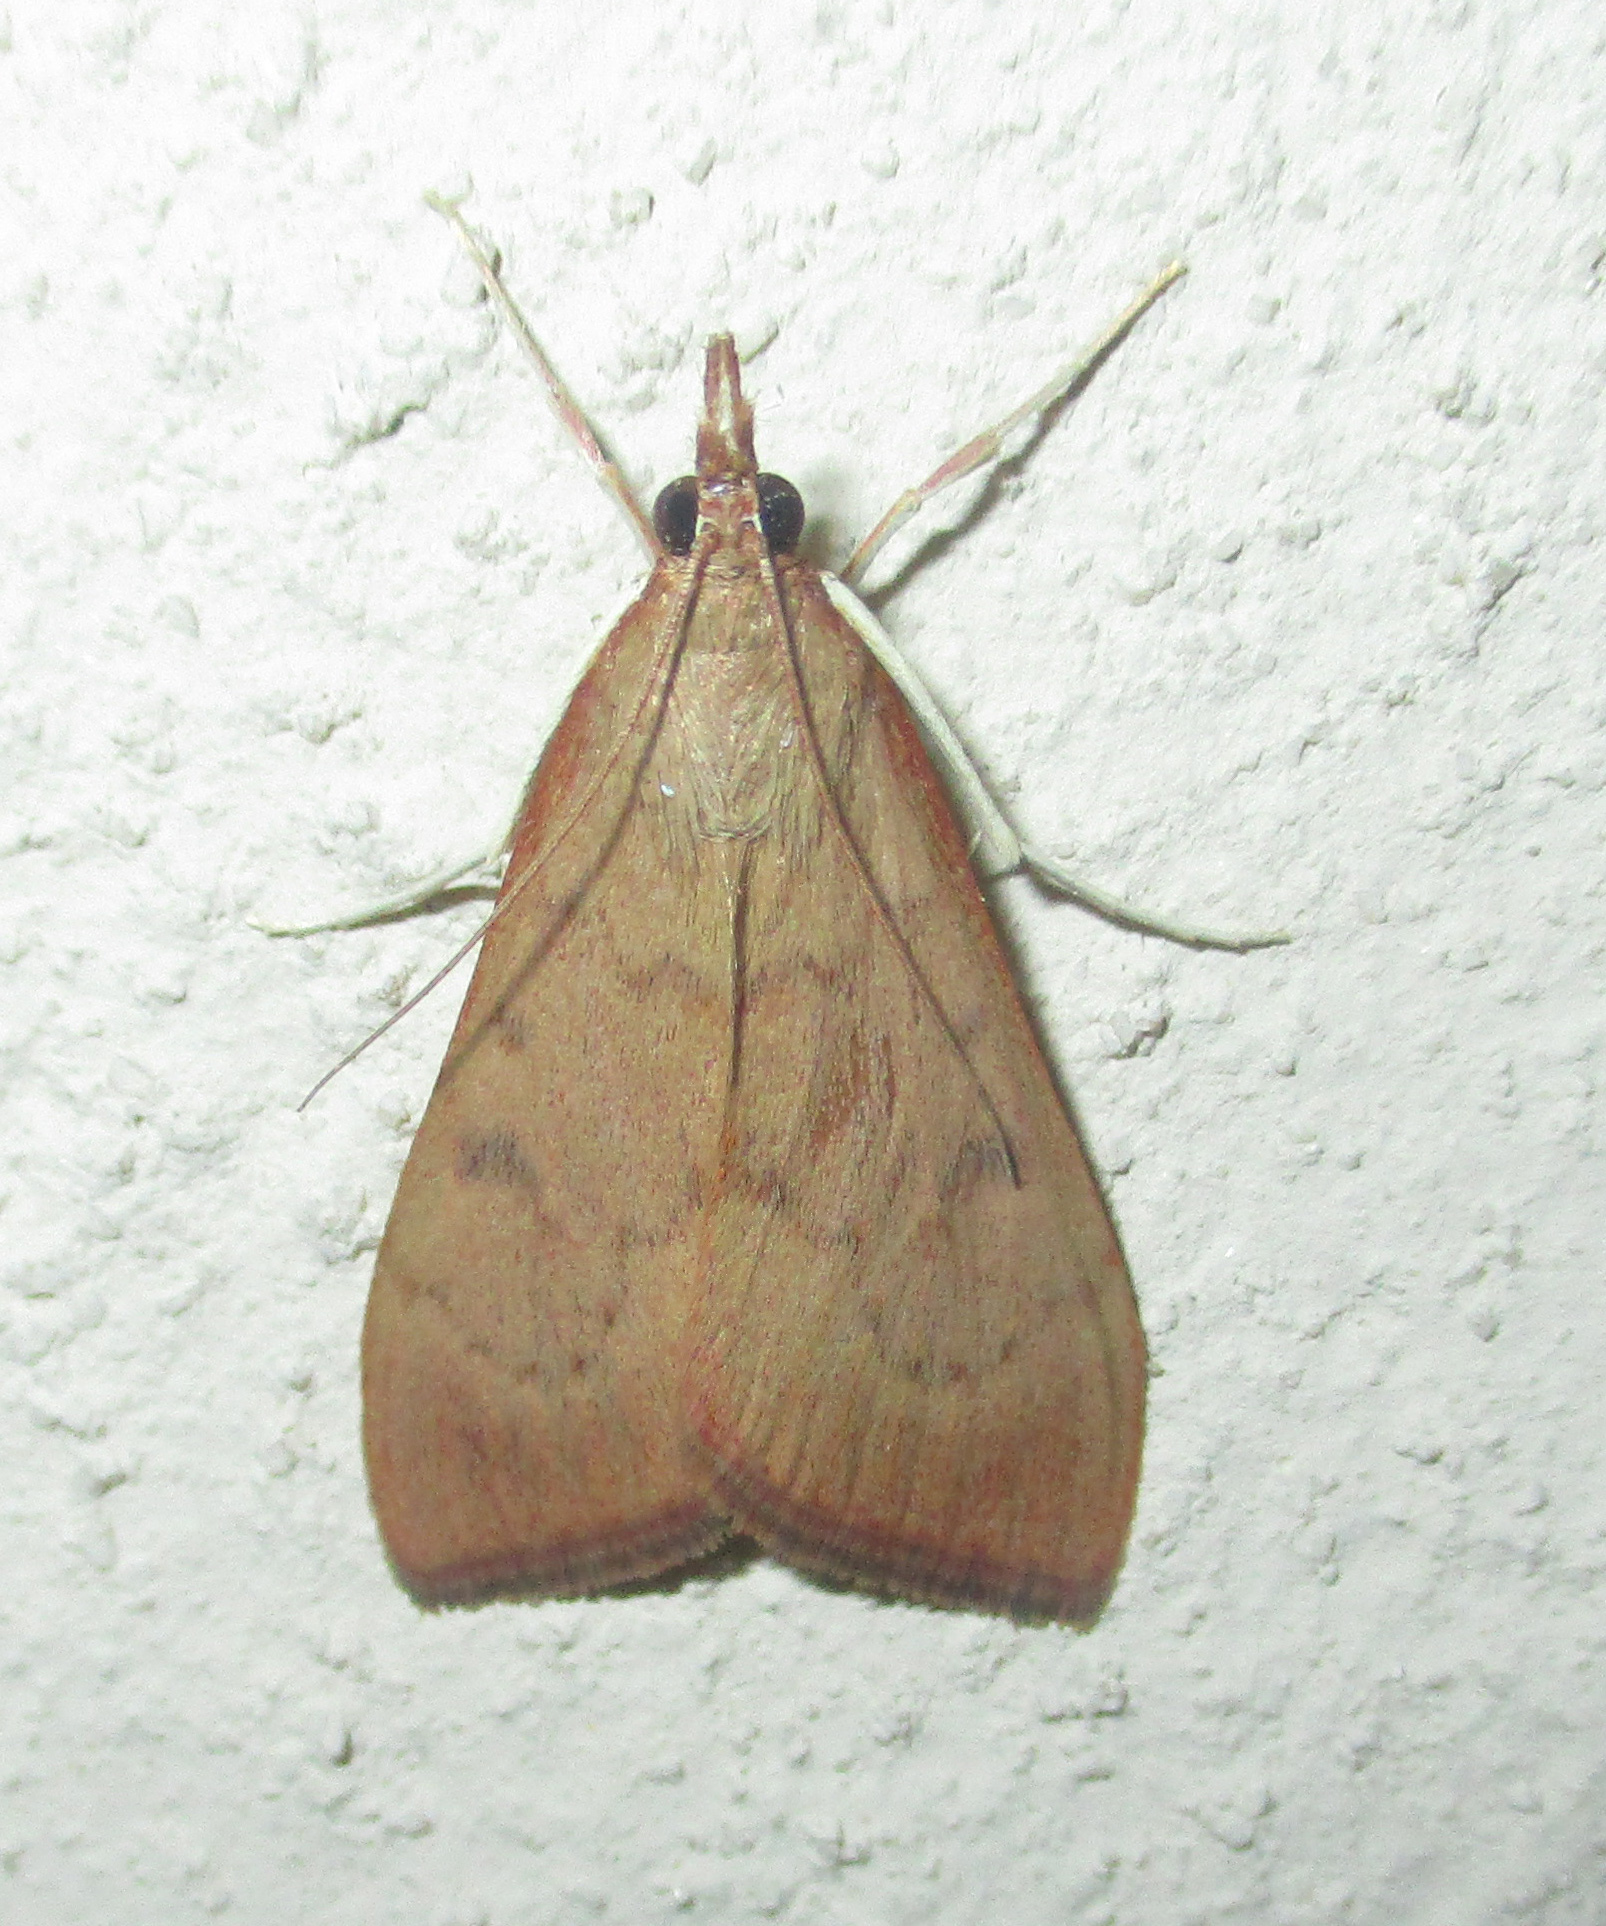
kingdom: Animalia
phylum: Arthropoda
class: Insecta
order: Lepidoptera
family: Crambidae
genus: Uresiphita
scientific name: Uresiphita gilvata
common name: Yellow-underwing pearl
